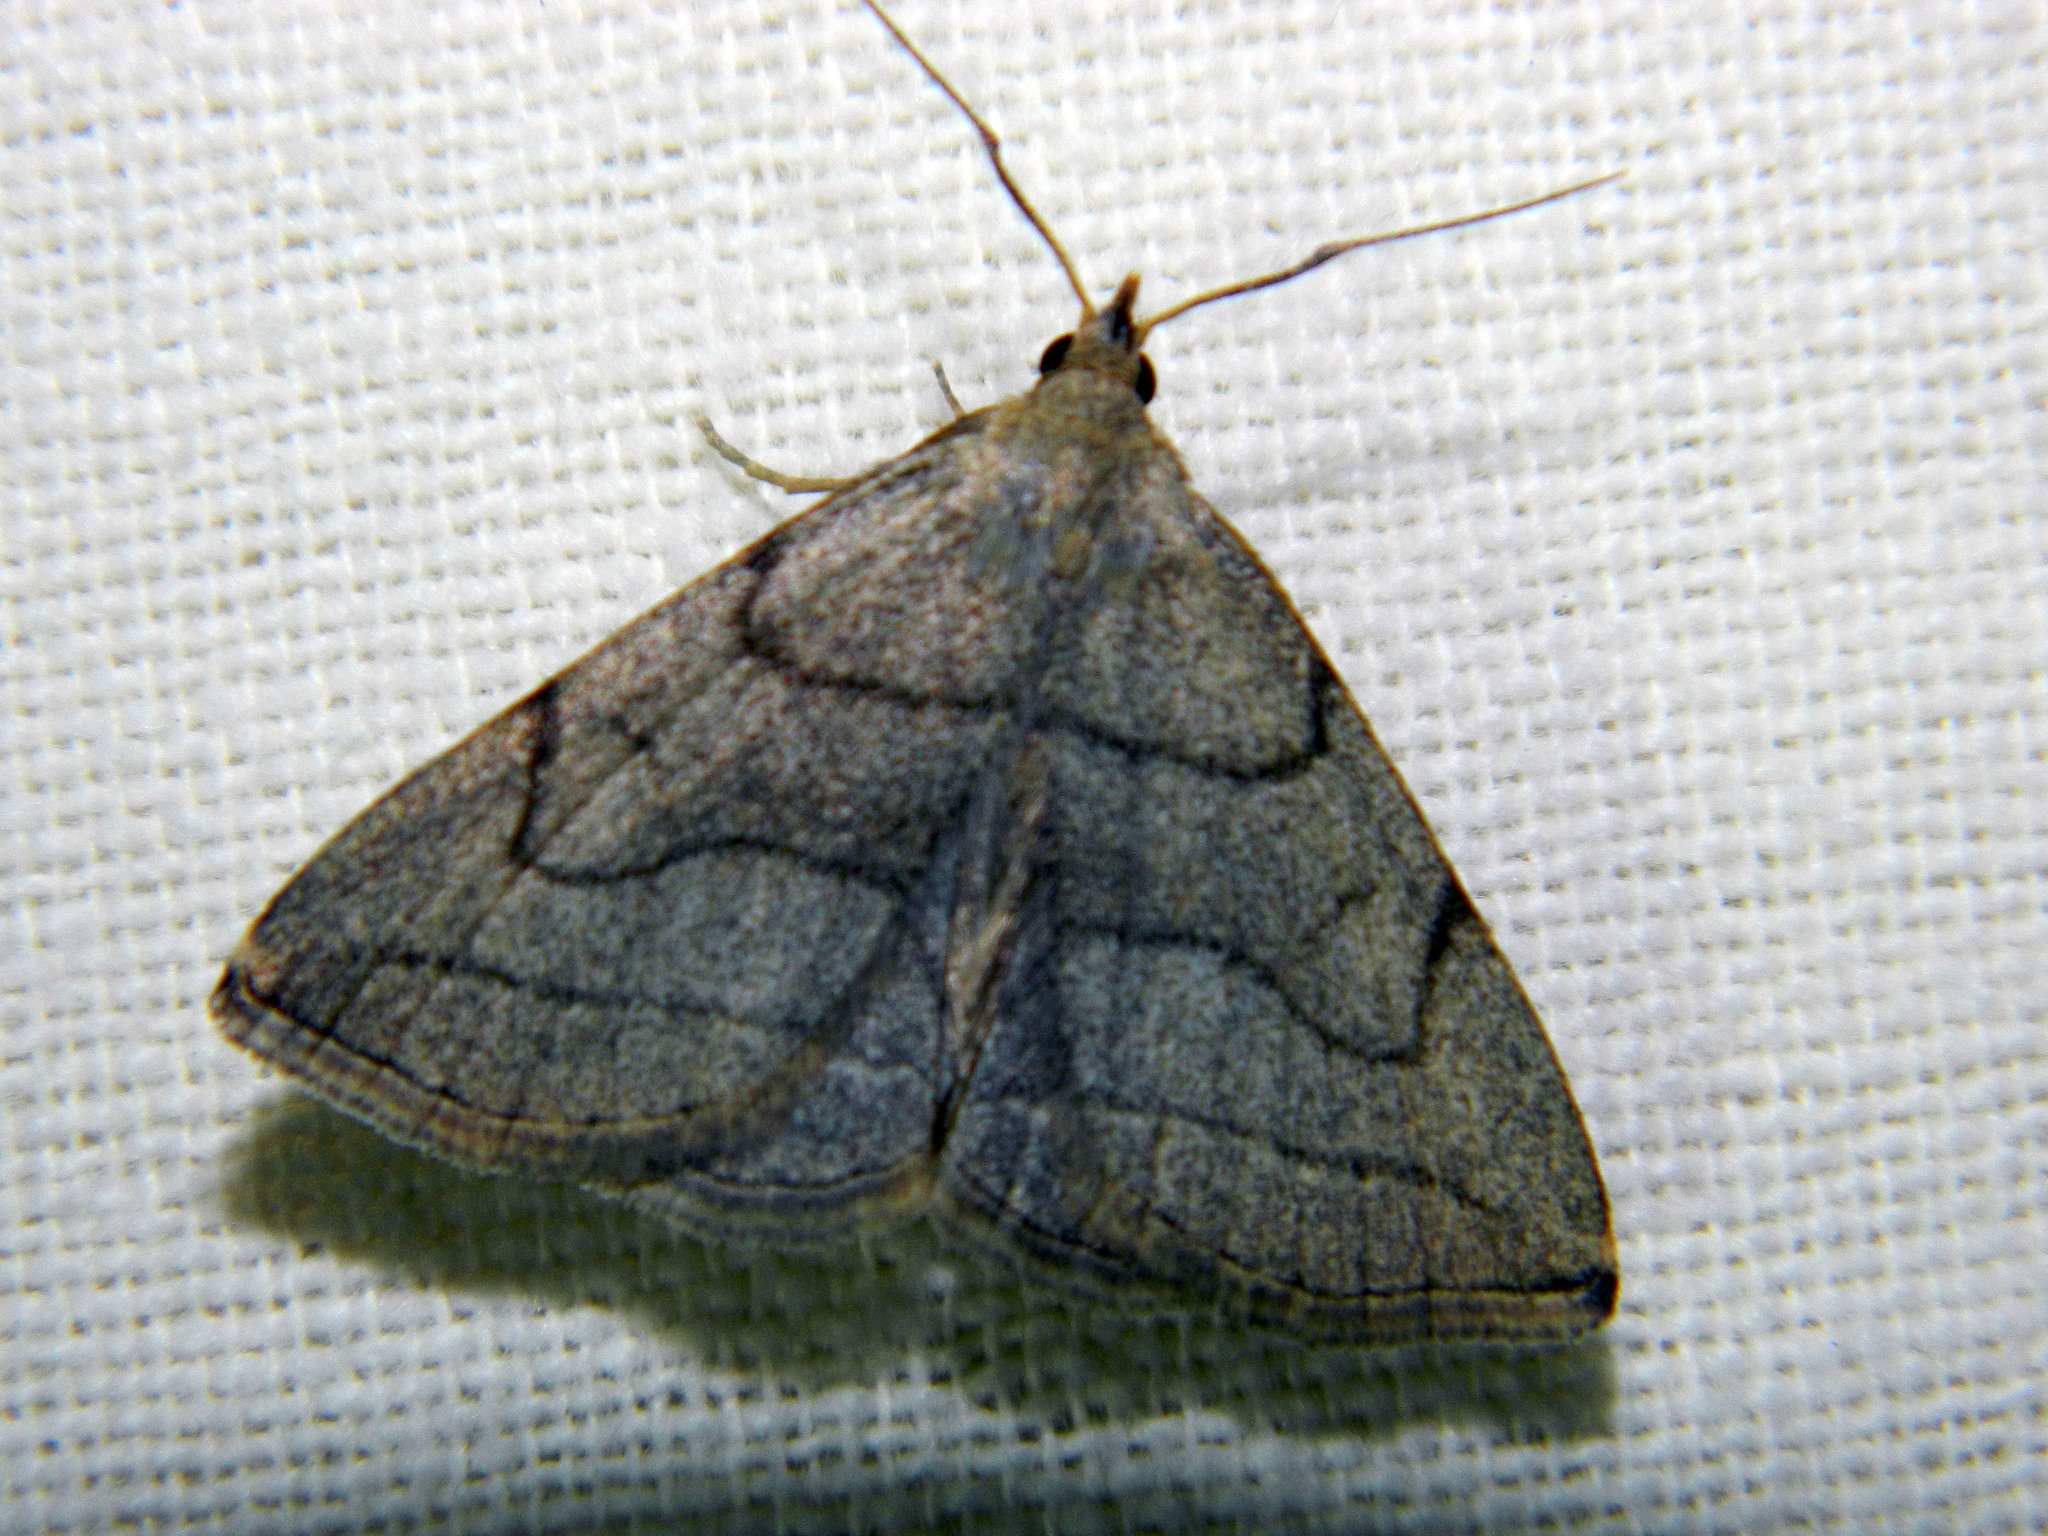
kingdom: Animalia
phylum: Arthropoda
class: Insecta
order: Lepidoptera
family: Erebidae
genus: Zanclognatha
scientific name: Zanclognatha pedipilalis
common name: Grayish fan-foot
